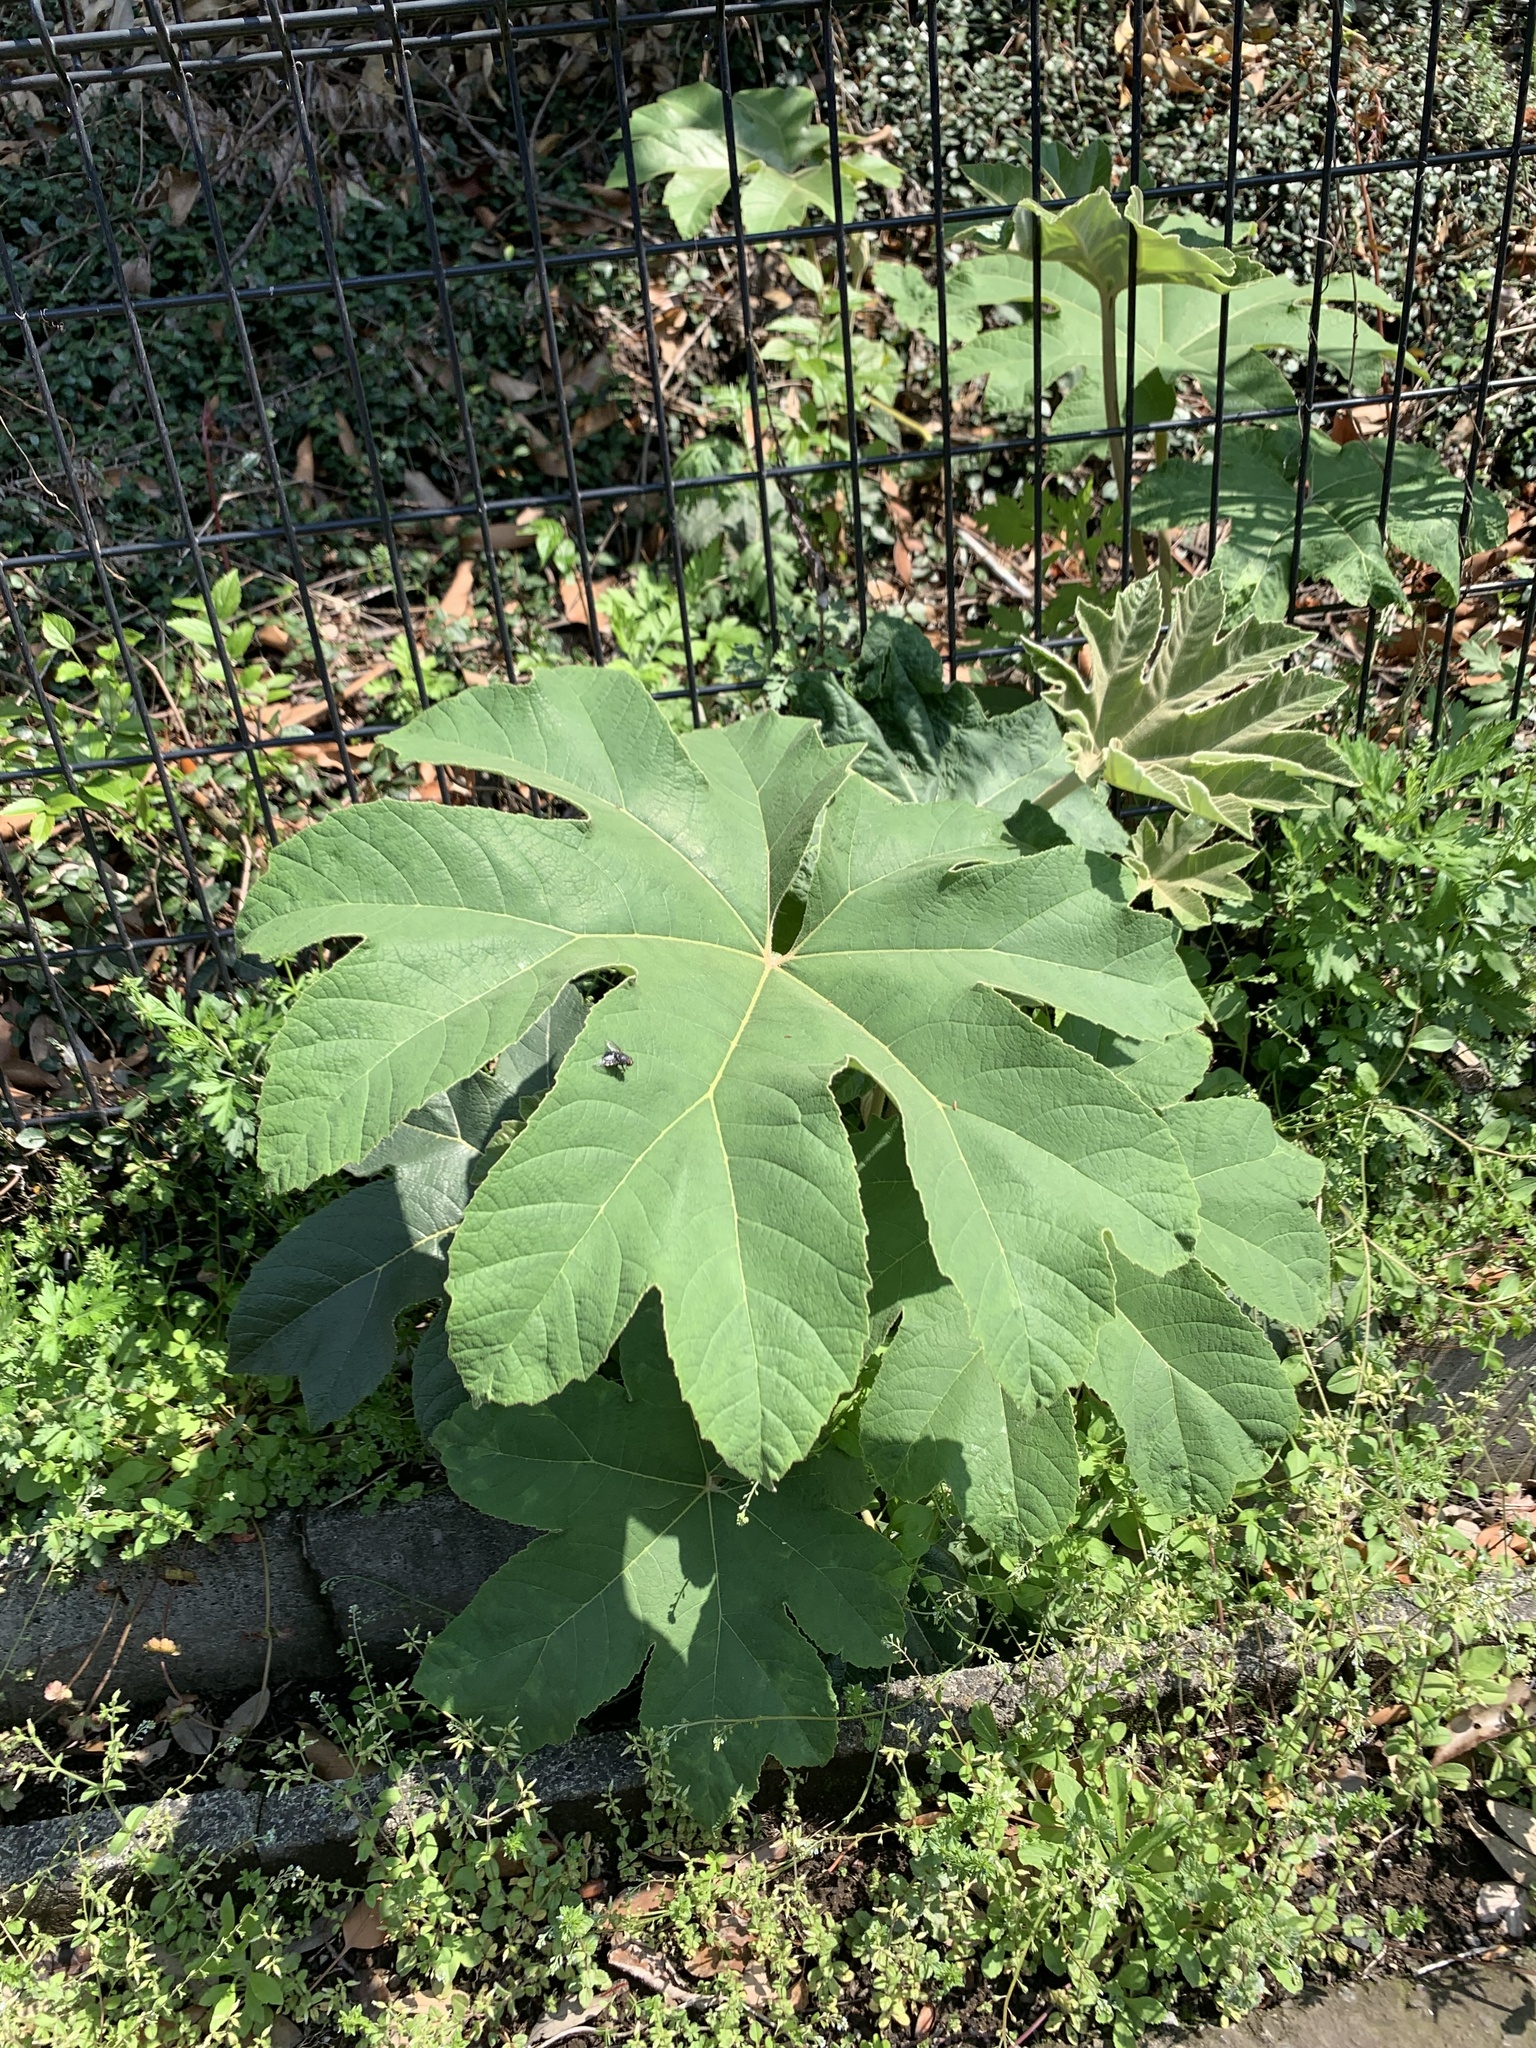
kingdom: Plantae
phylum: Tracheophyta
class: Magnoliopsida
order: Apiales
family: Araliaceae
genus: Tetrapanax
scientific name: Tetrapanax papyrifer
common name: Rice-paper plant
